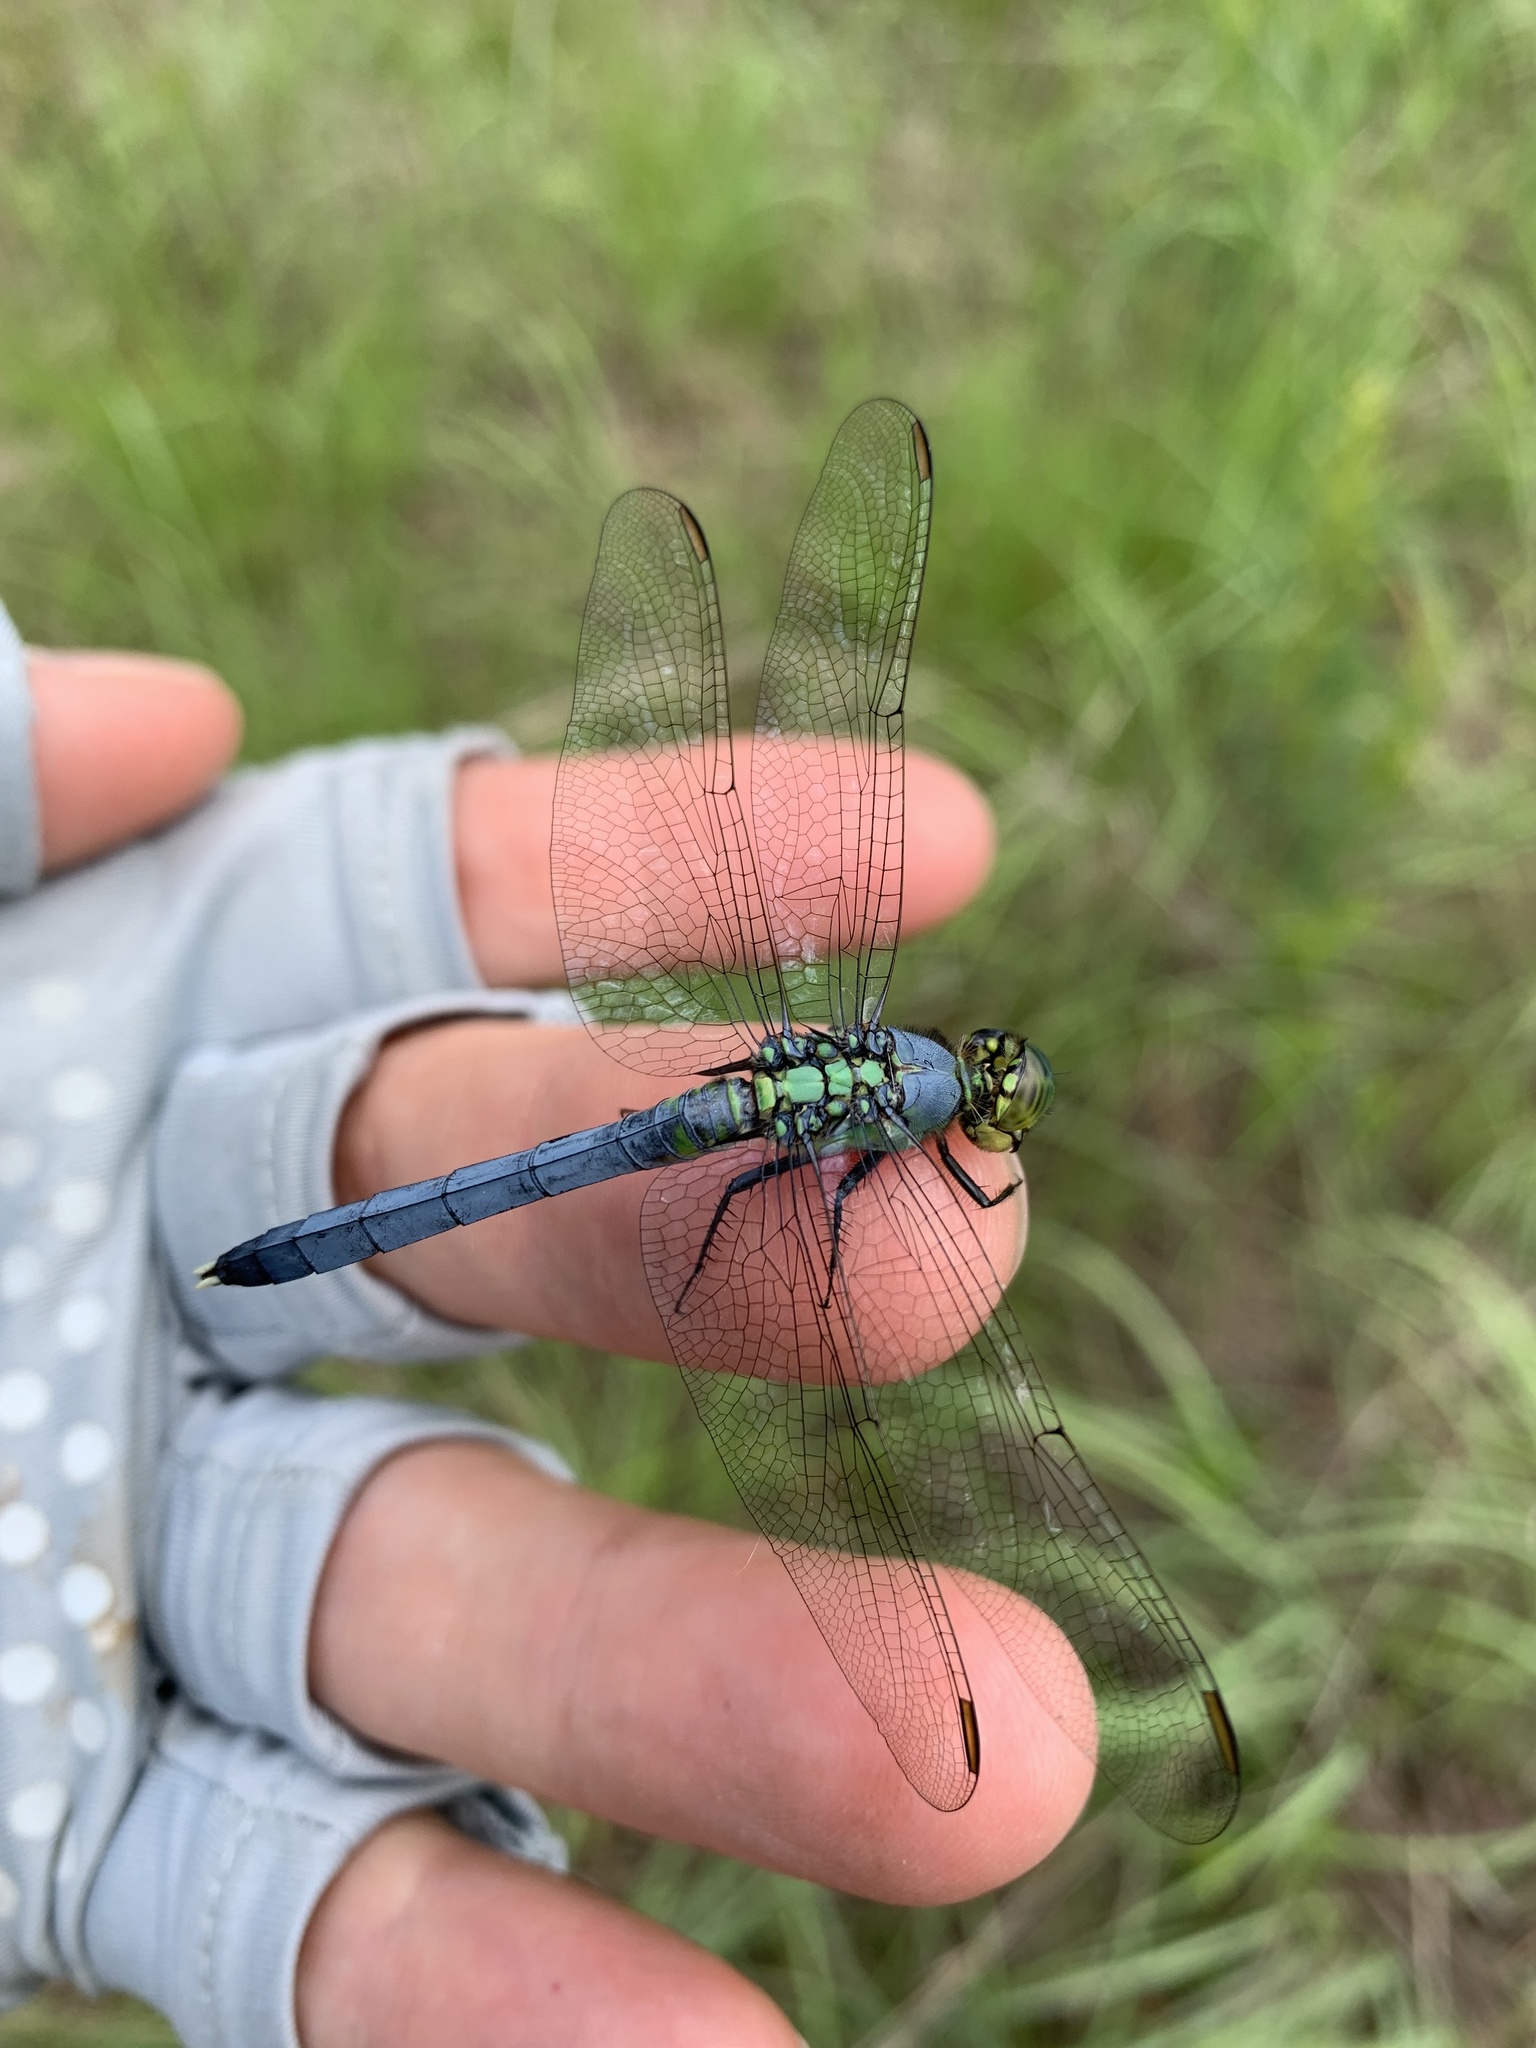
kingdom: Animalia
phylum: Arthropoda
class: Insecta
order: Odonata
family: Libellulidae
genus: Erythemis
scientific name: Erythemis simplicicollis
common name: Eastern pondhawk
